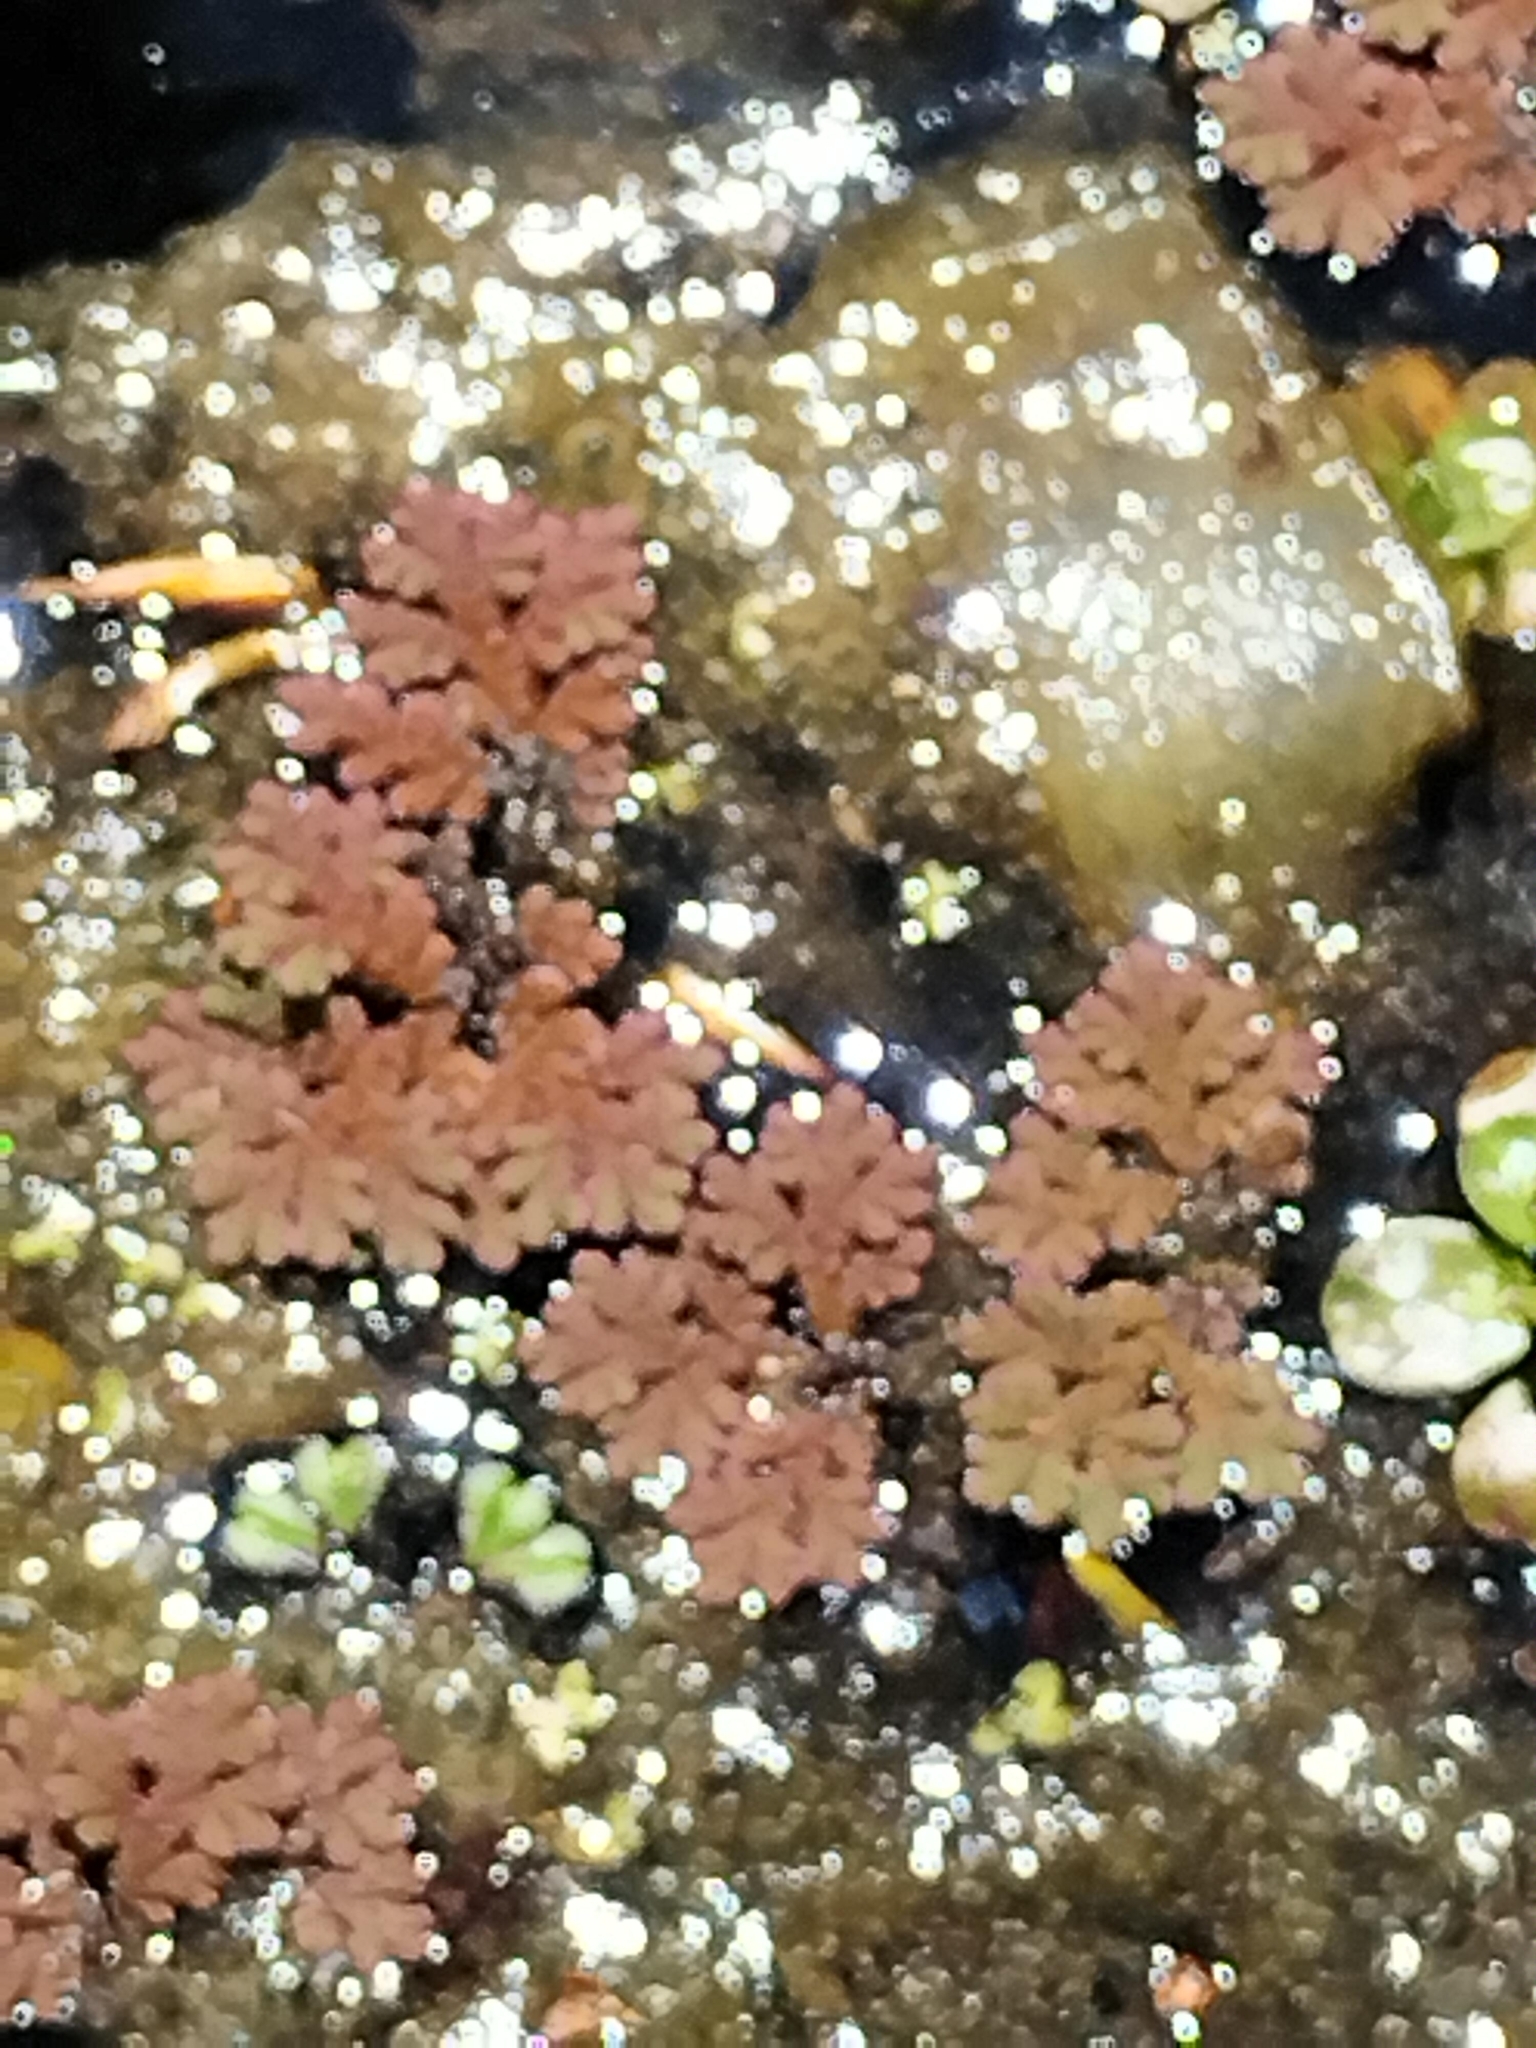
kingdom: Plantae
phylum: Tracheophyta
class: Polypodiopsida
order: Salviniales
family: Salviniaceae
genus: Azolla
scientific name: Azolla rubra
